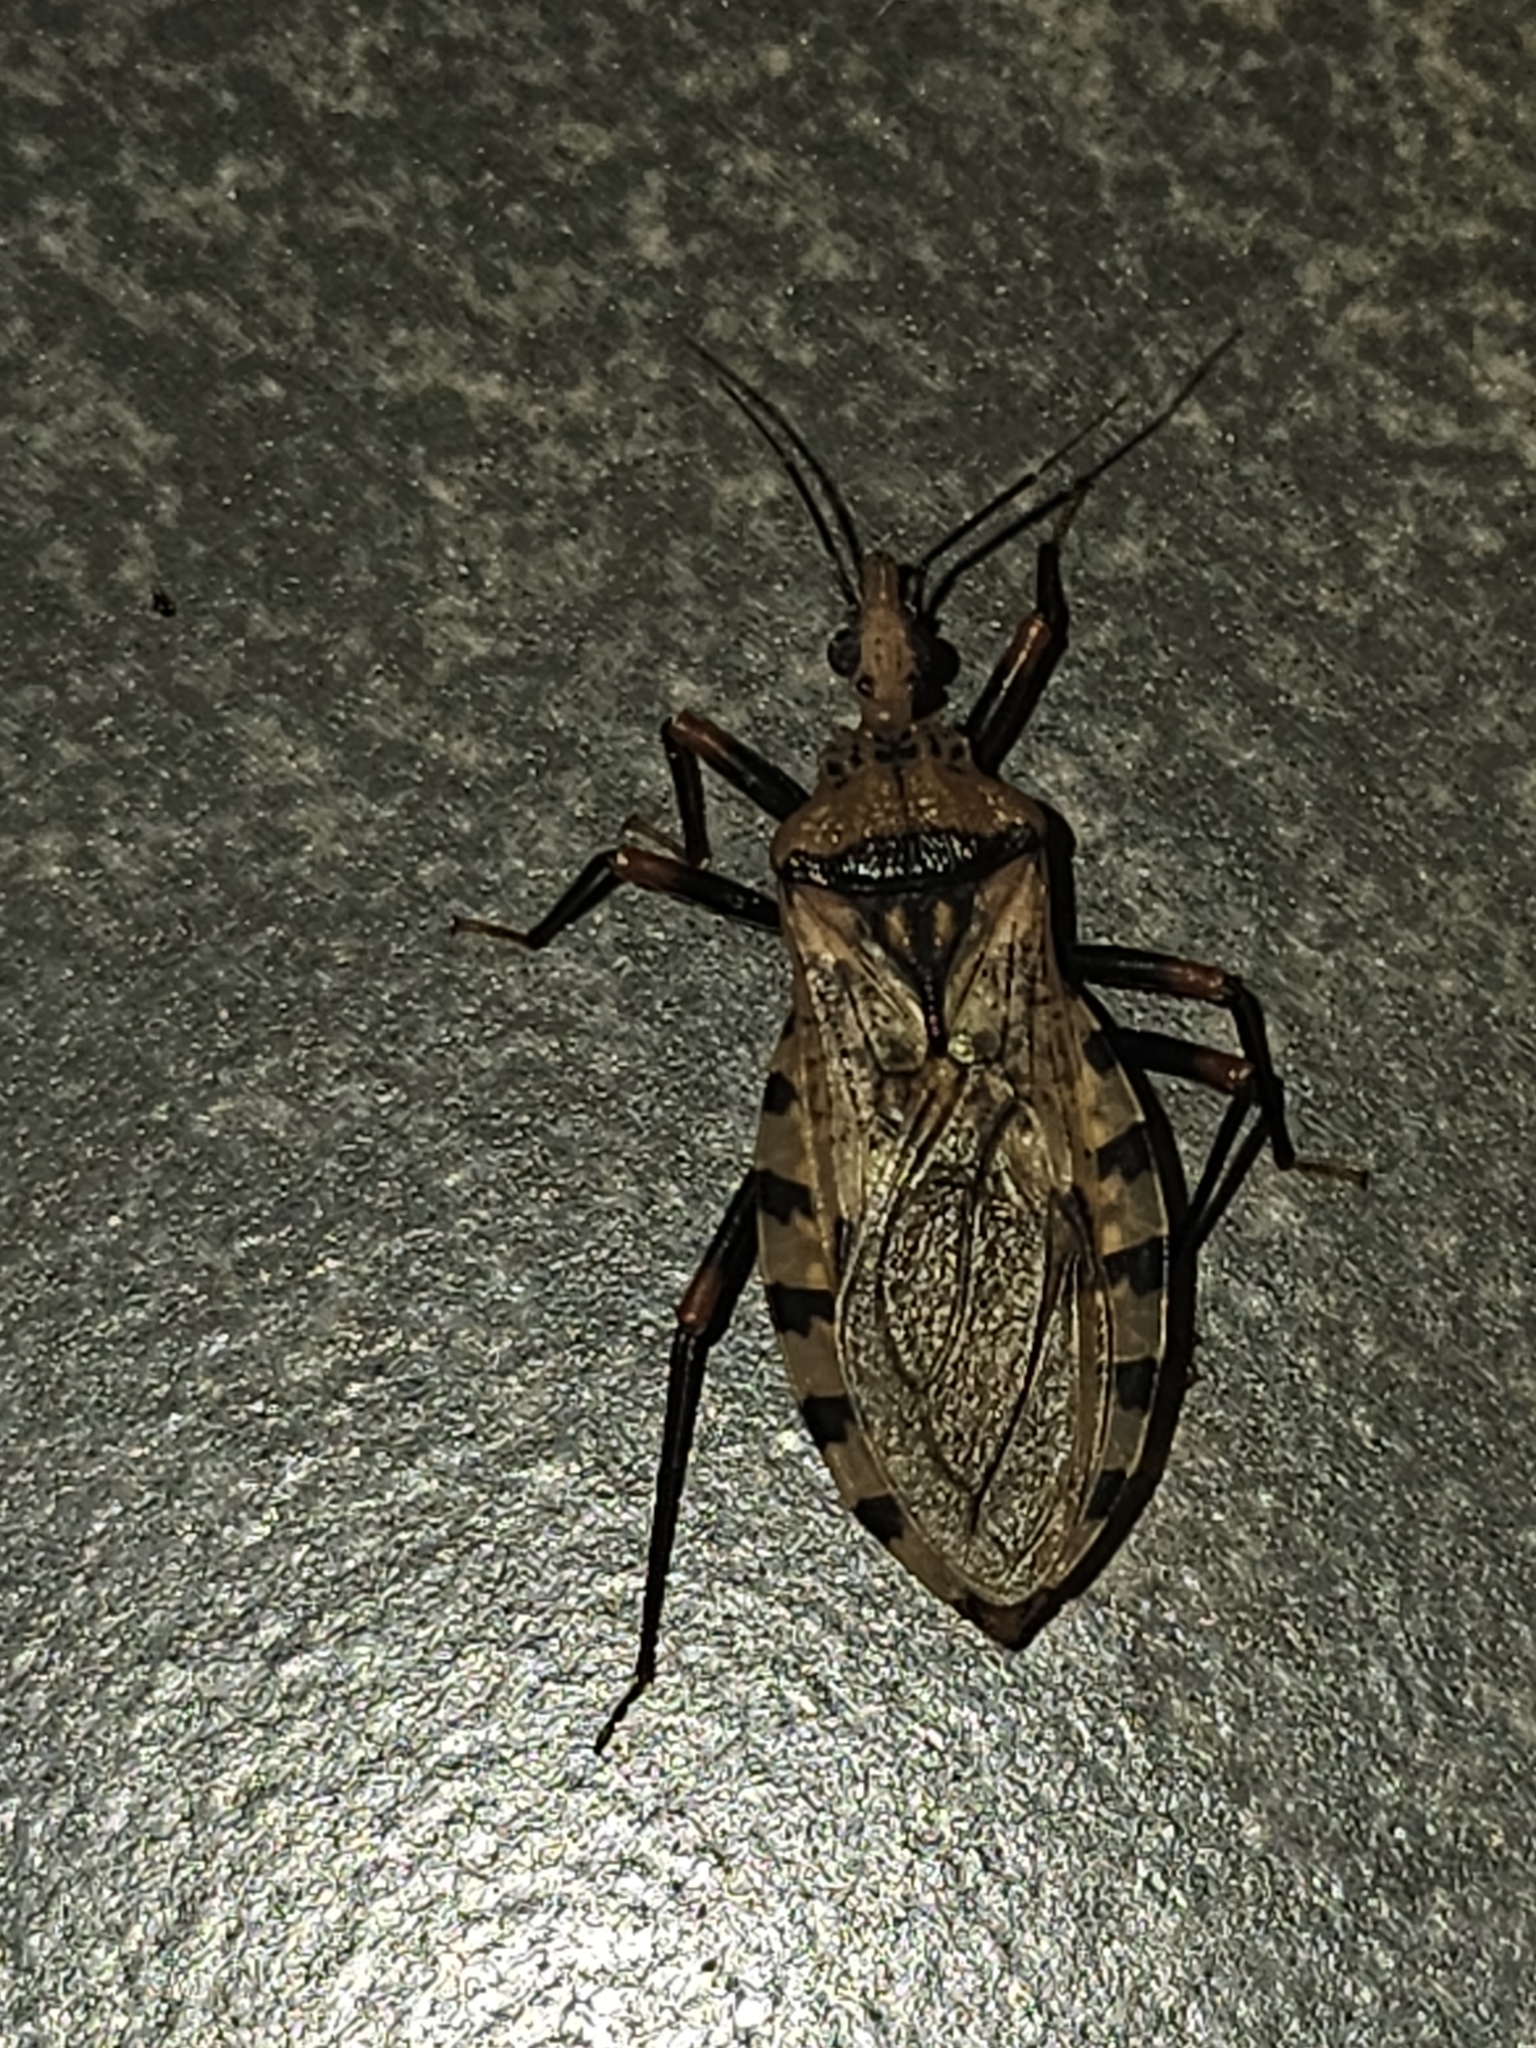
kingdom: Animalia
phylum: Arthropoda
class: Insecta
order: Hemiptera
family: Reduviidae
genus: Panstrongylus
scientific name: Panstrongylus geniculatus
